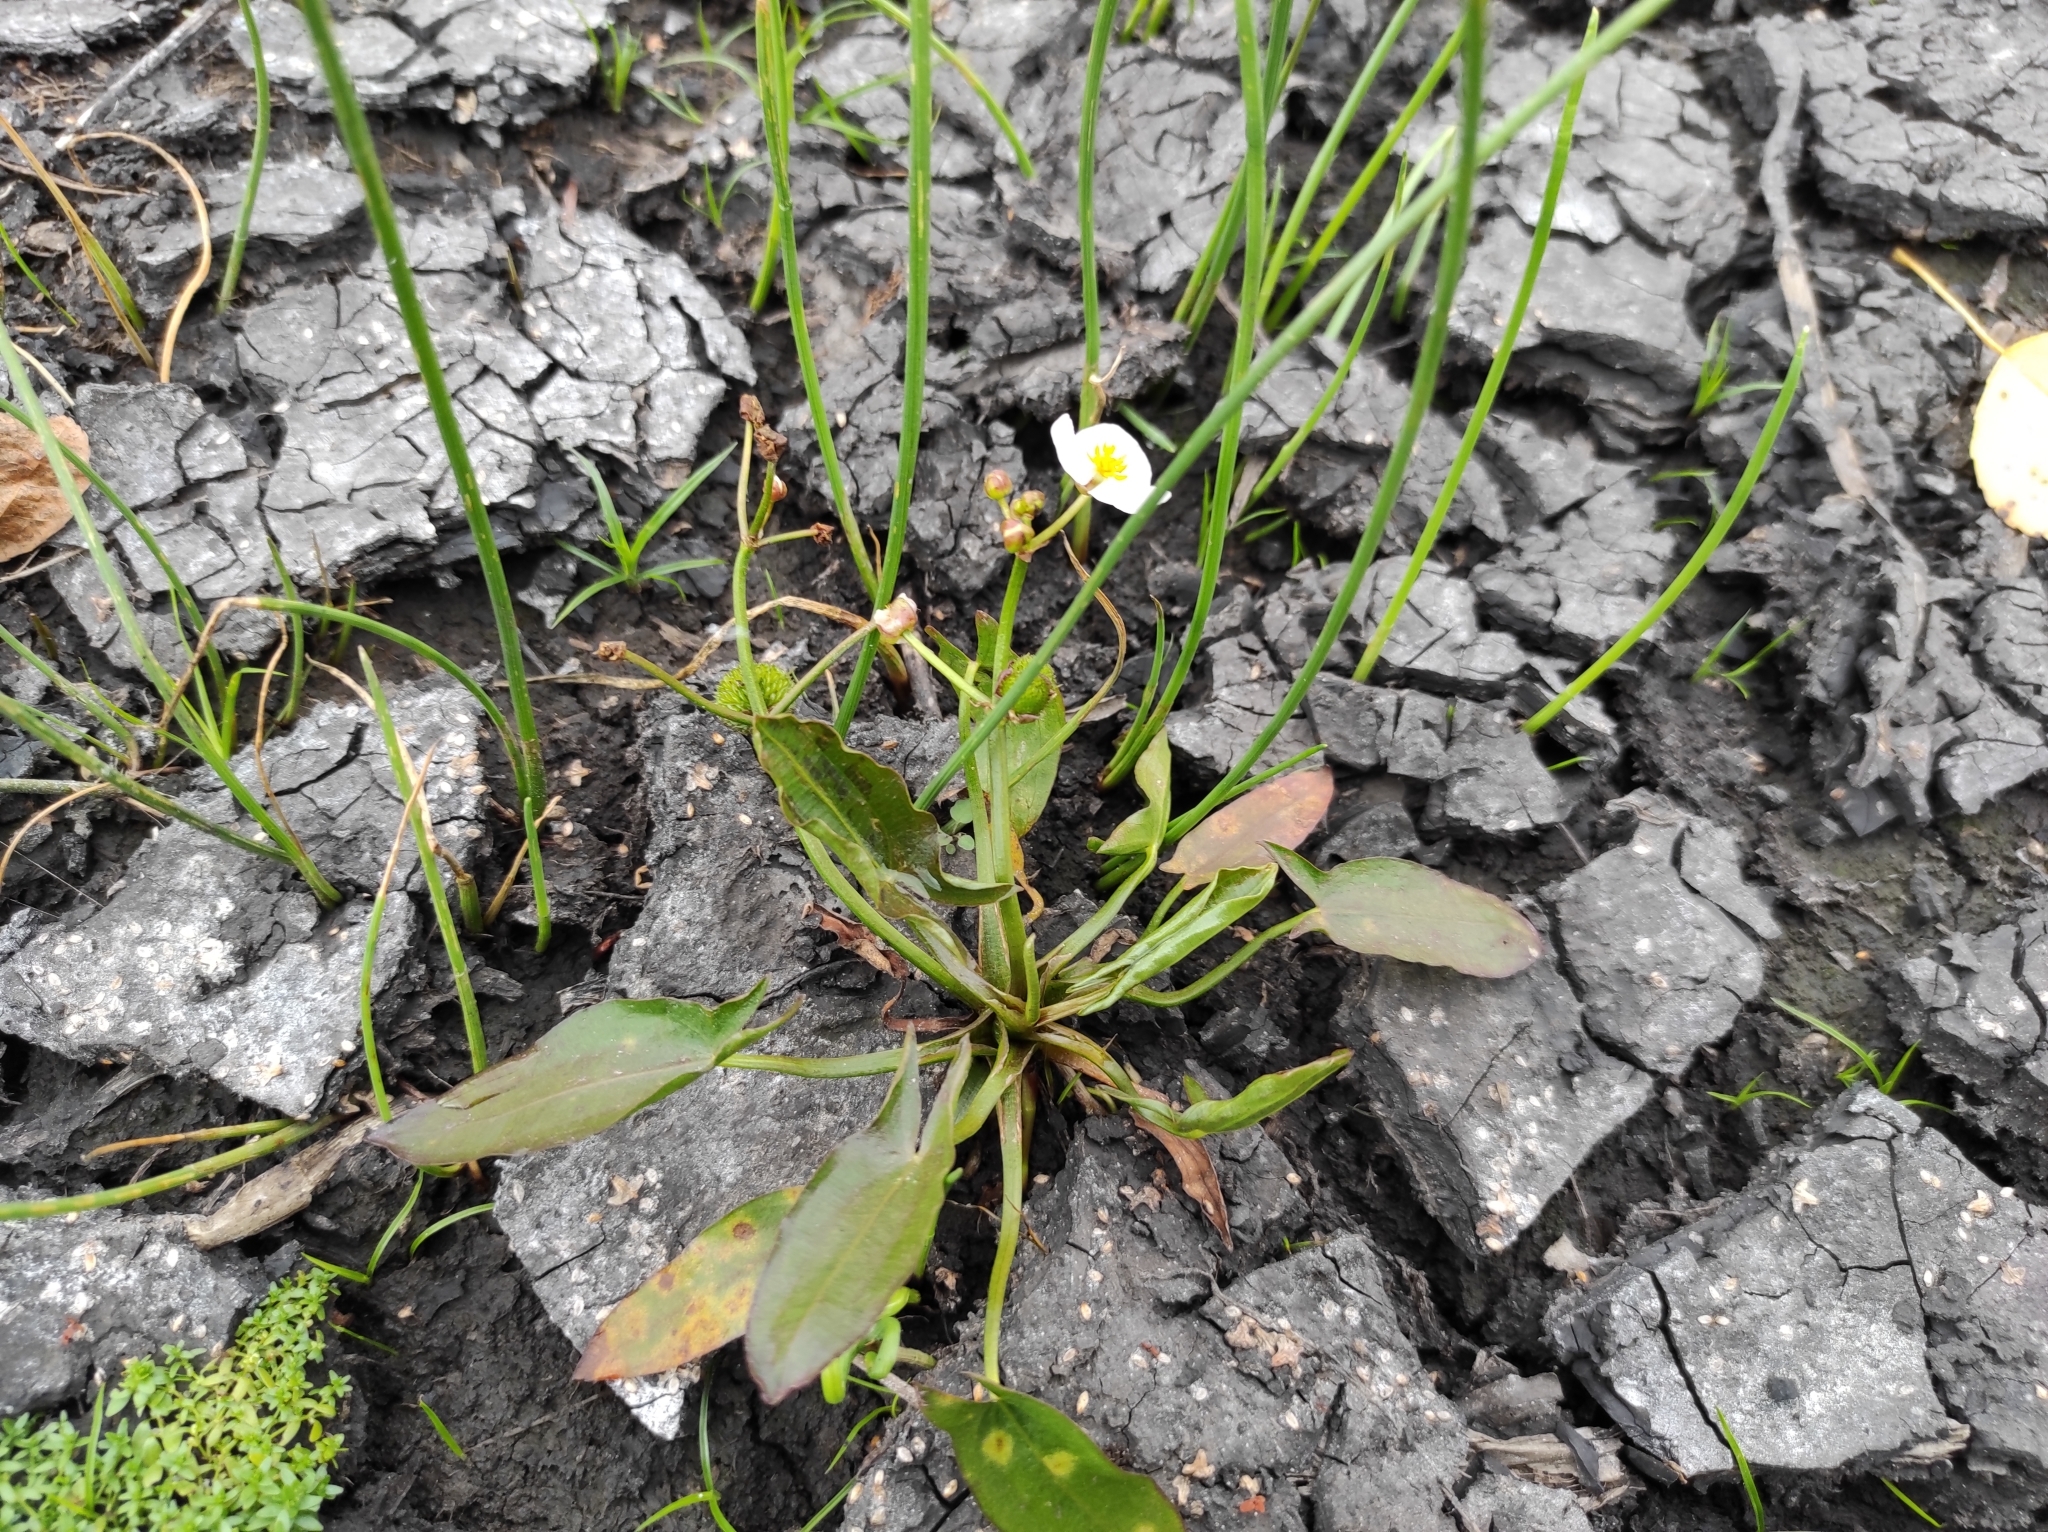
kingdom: Plantae
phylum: Tracheophyta
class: Liliopsida
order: Alismatales
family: Alismataceae
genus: Sagittaria
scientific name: Sagittaria natans
